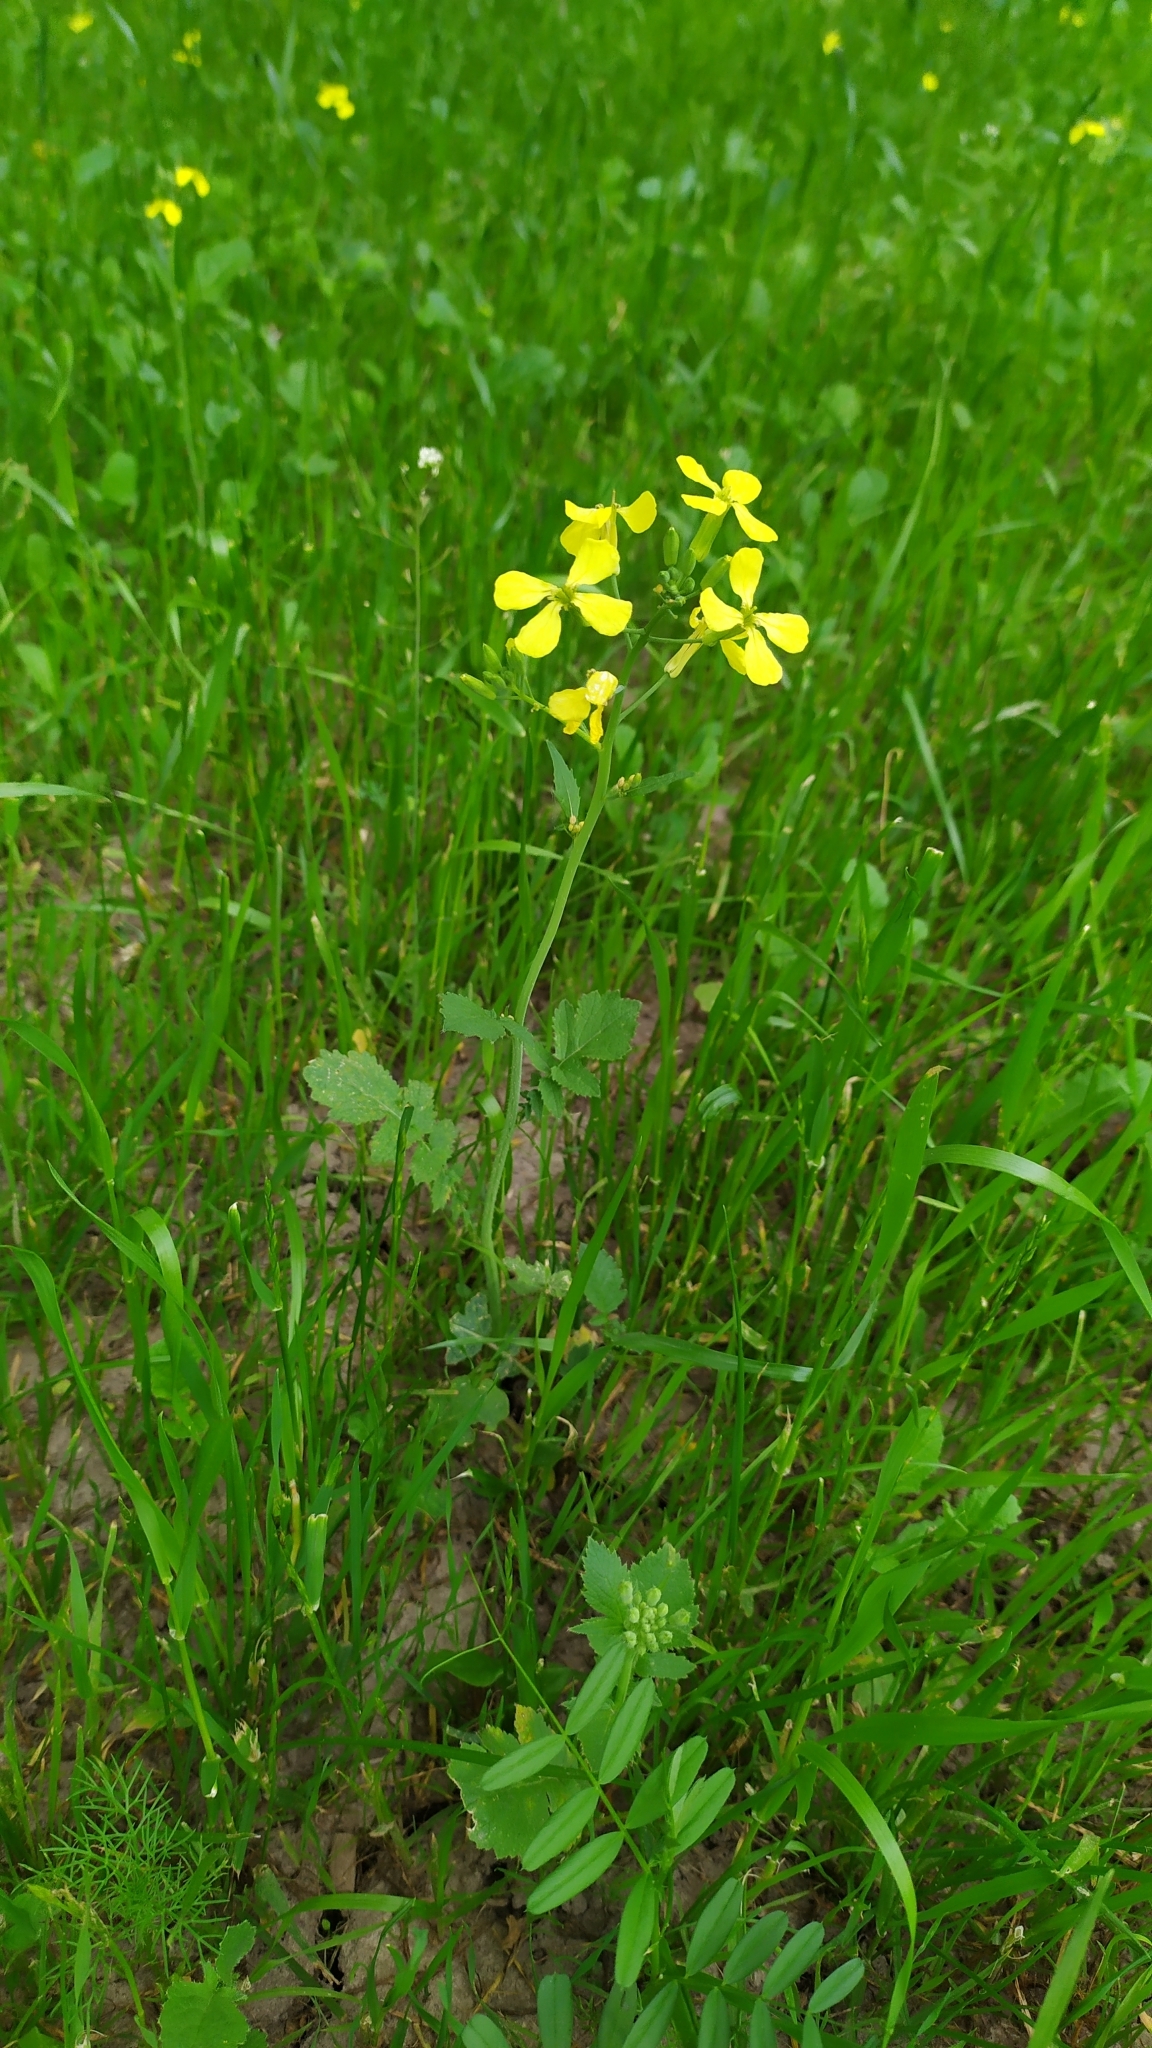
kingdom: Plantae
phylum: Tracheophyta
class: Magnoliopsida
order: Brassicales
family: Brassicaceae
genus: Raphanus
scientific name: Raphanus raphanistrum
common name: Wild radish
